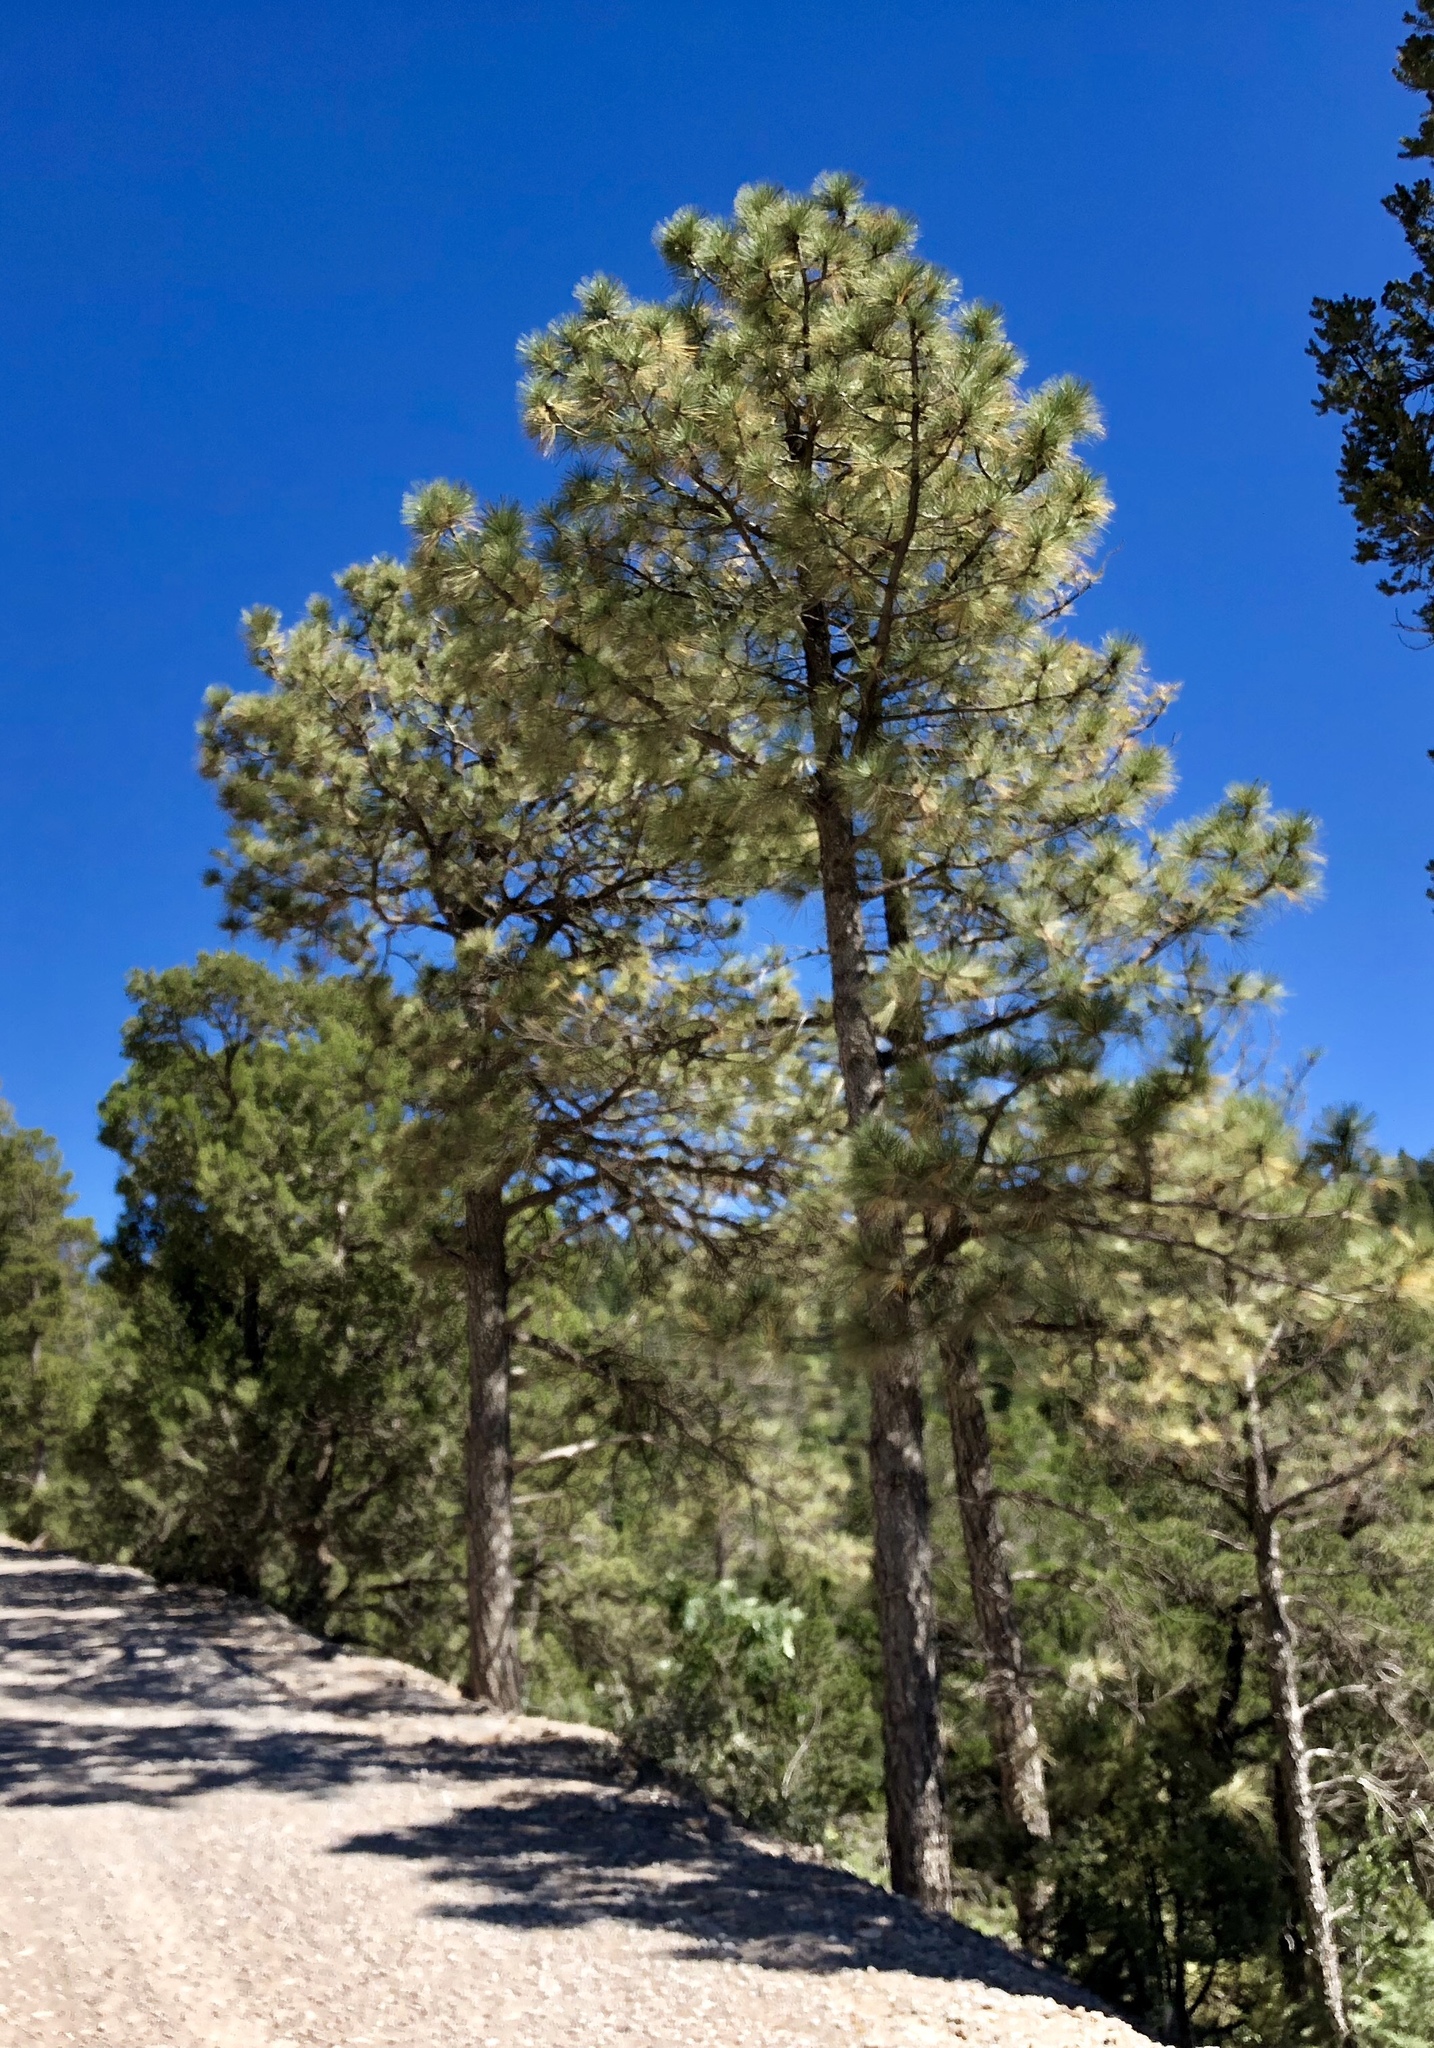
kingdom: Plantae
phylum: Tracheophyta
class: Pinopsida
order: Pinales
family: Pinaceae
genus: Pinus
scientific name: Pinus ponderosa
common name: Western yellow-pine
